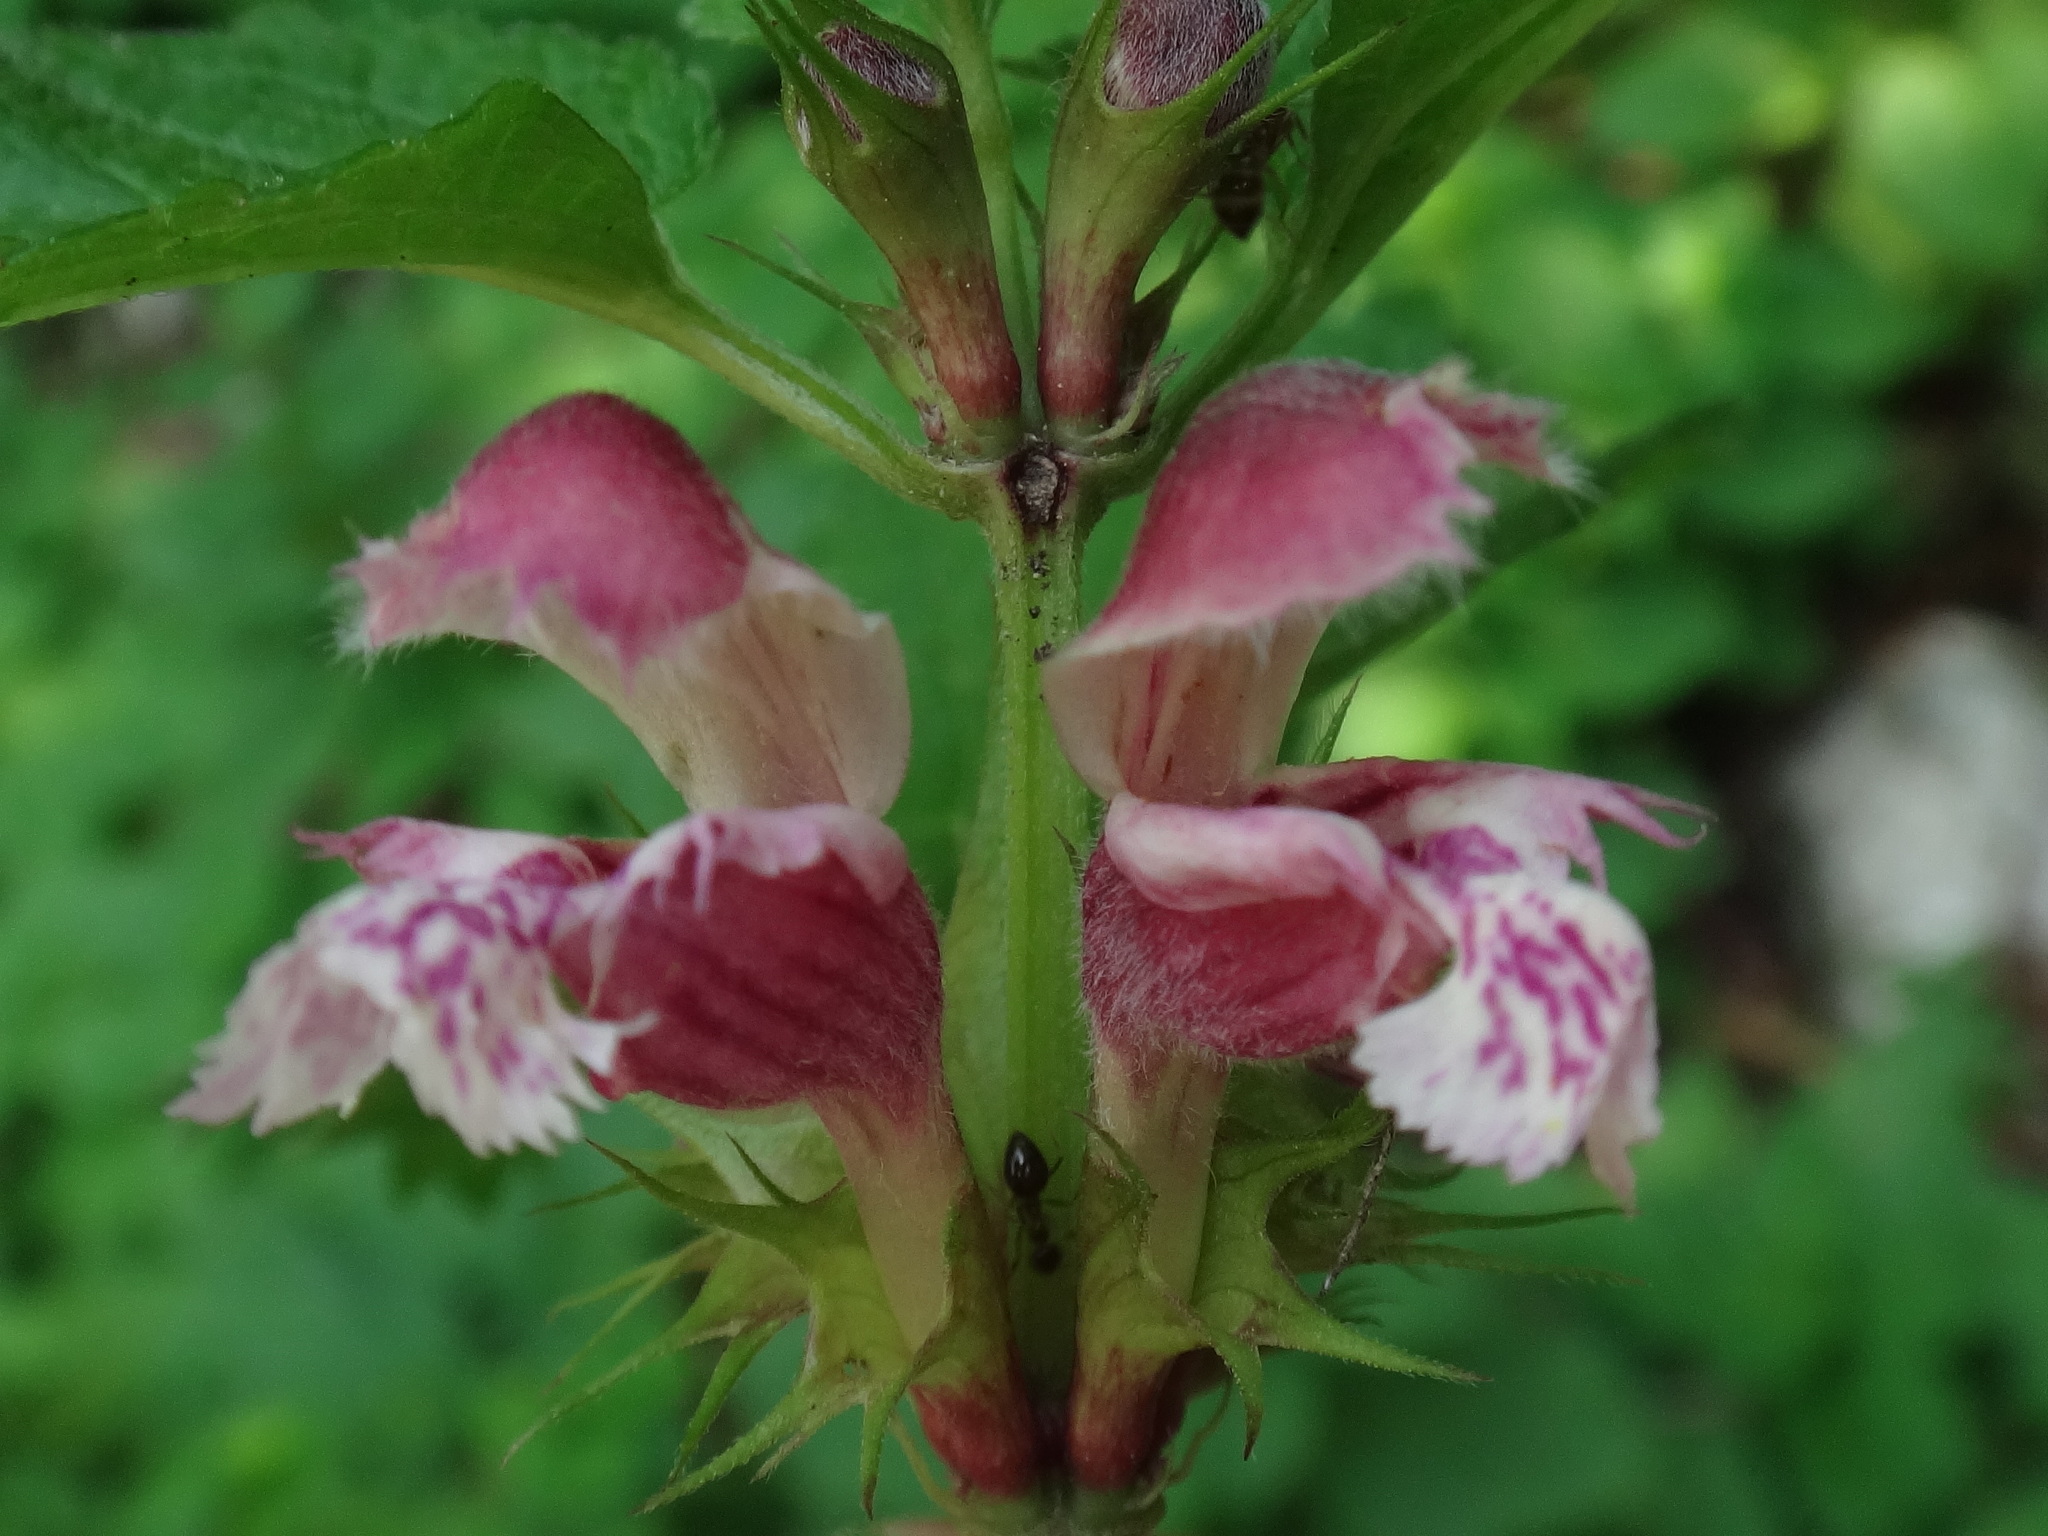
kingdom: Plantae
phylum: Tracheophyta
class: Magnoliopsida
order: Lamiales
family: Lamiaceae
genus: Lamium
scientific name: Lamium orvala
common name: Balm-leaved archangel
